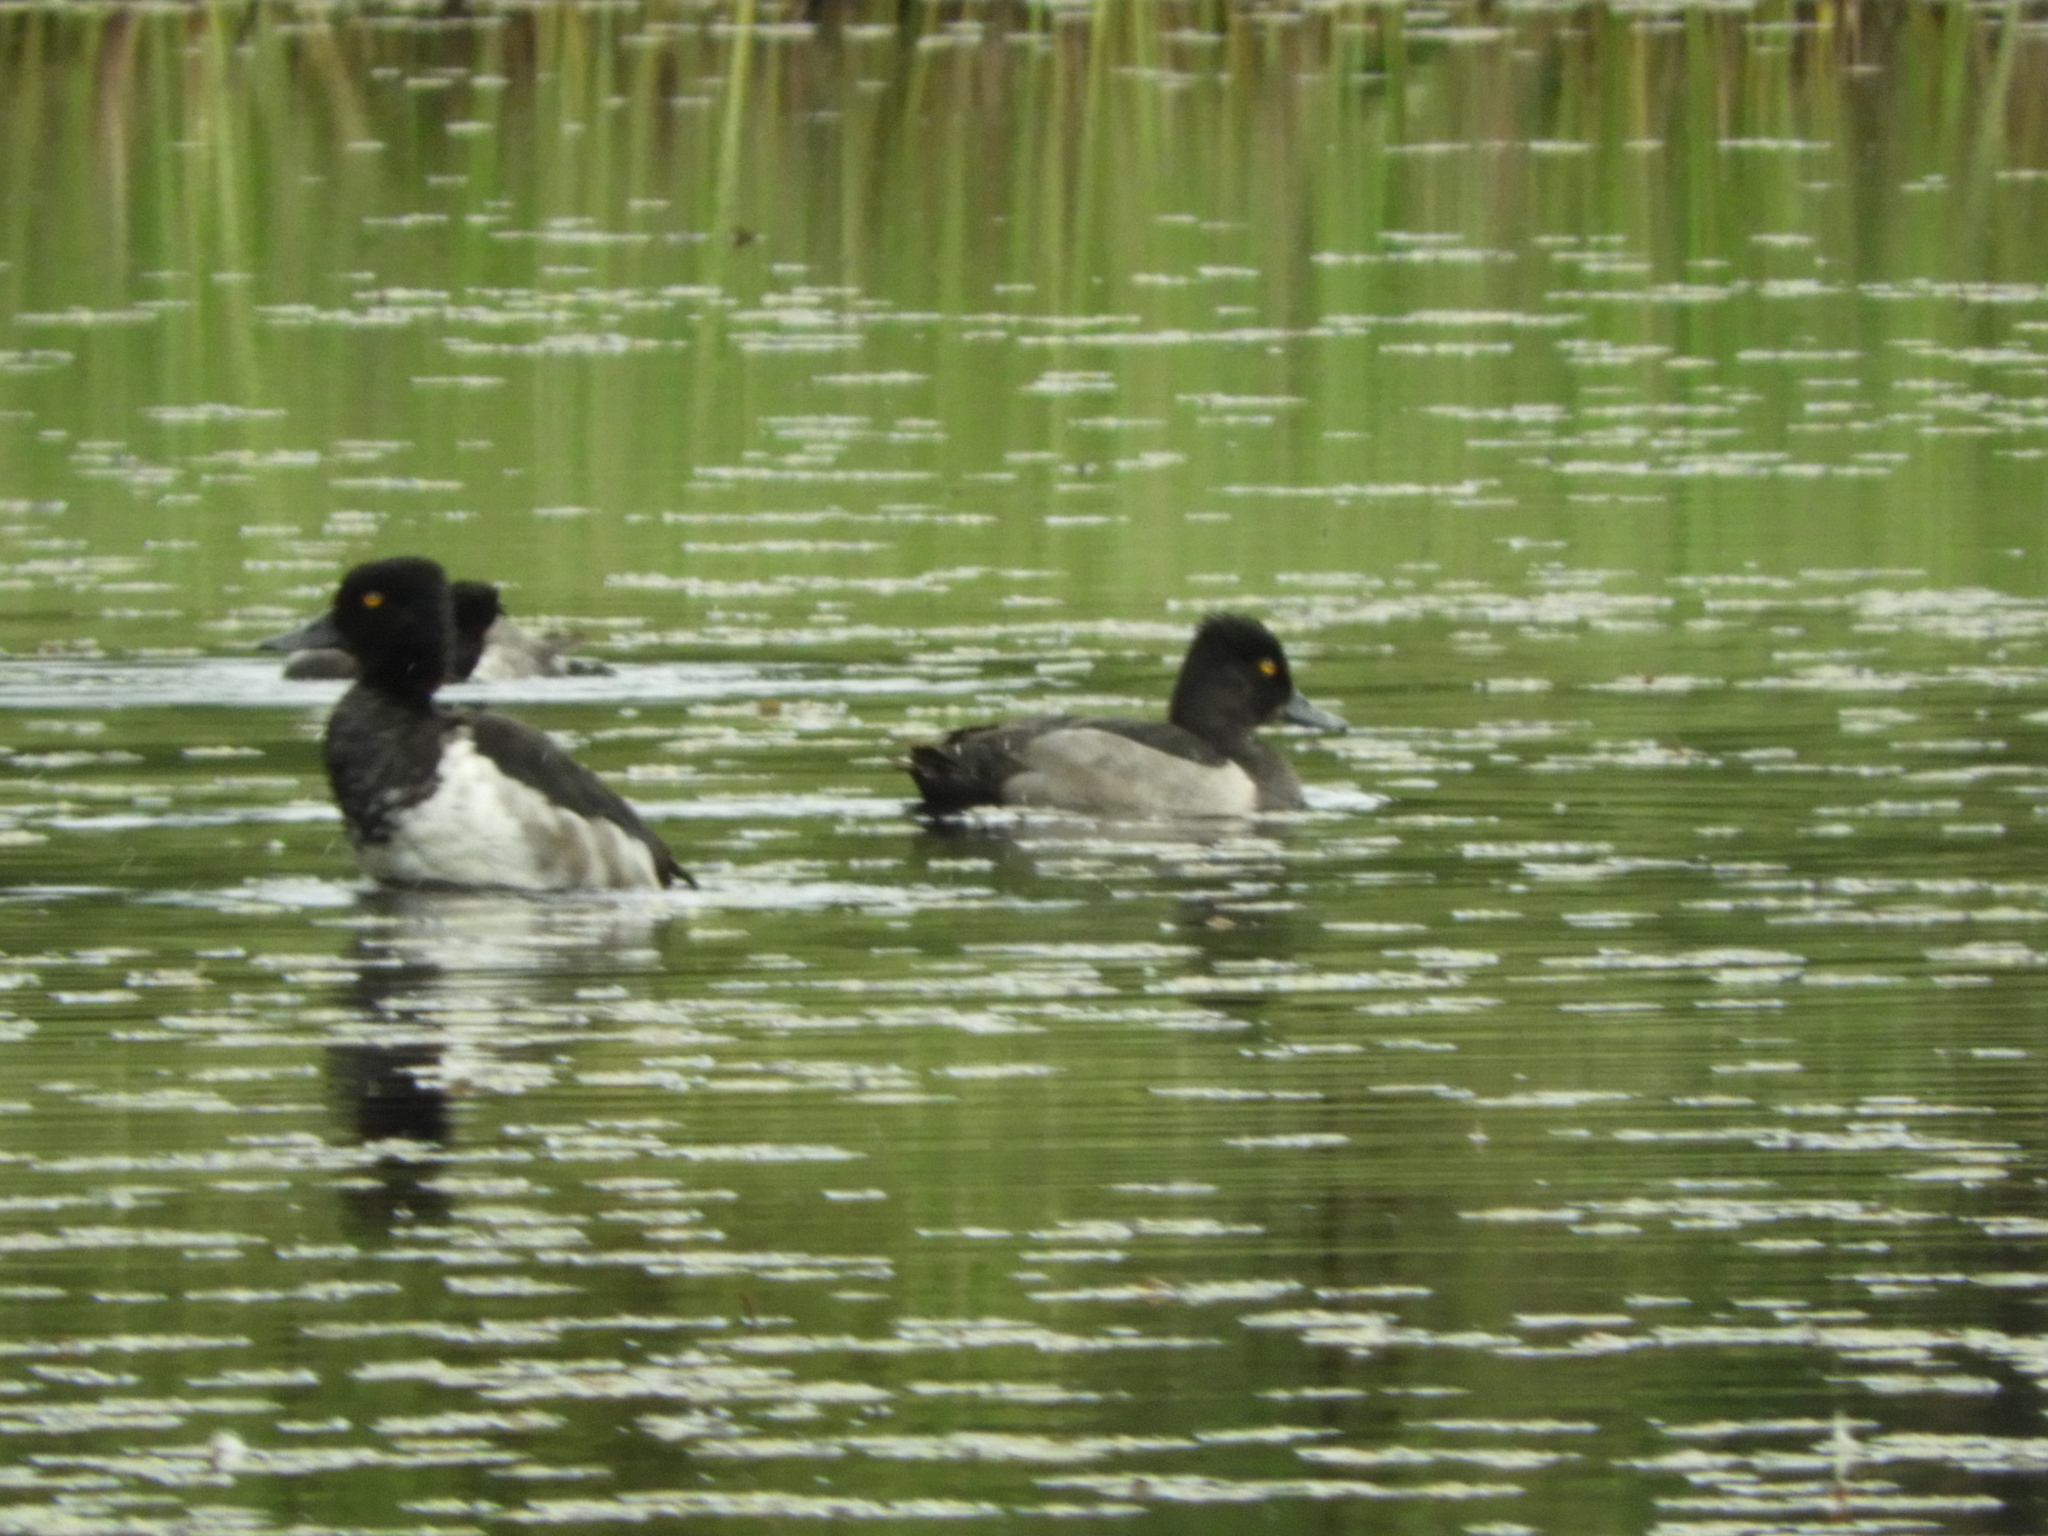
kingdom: Animalia
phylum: Chordata
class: Aves
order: Anseriformes
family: Anatidae
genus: Aythya
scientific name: Aythya collaris
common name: Ring-necked duck
